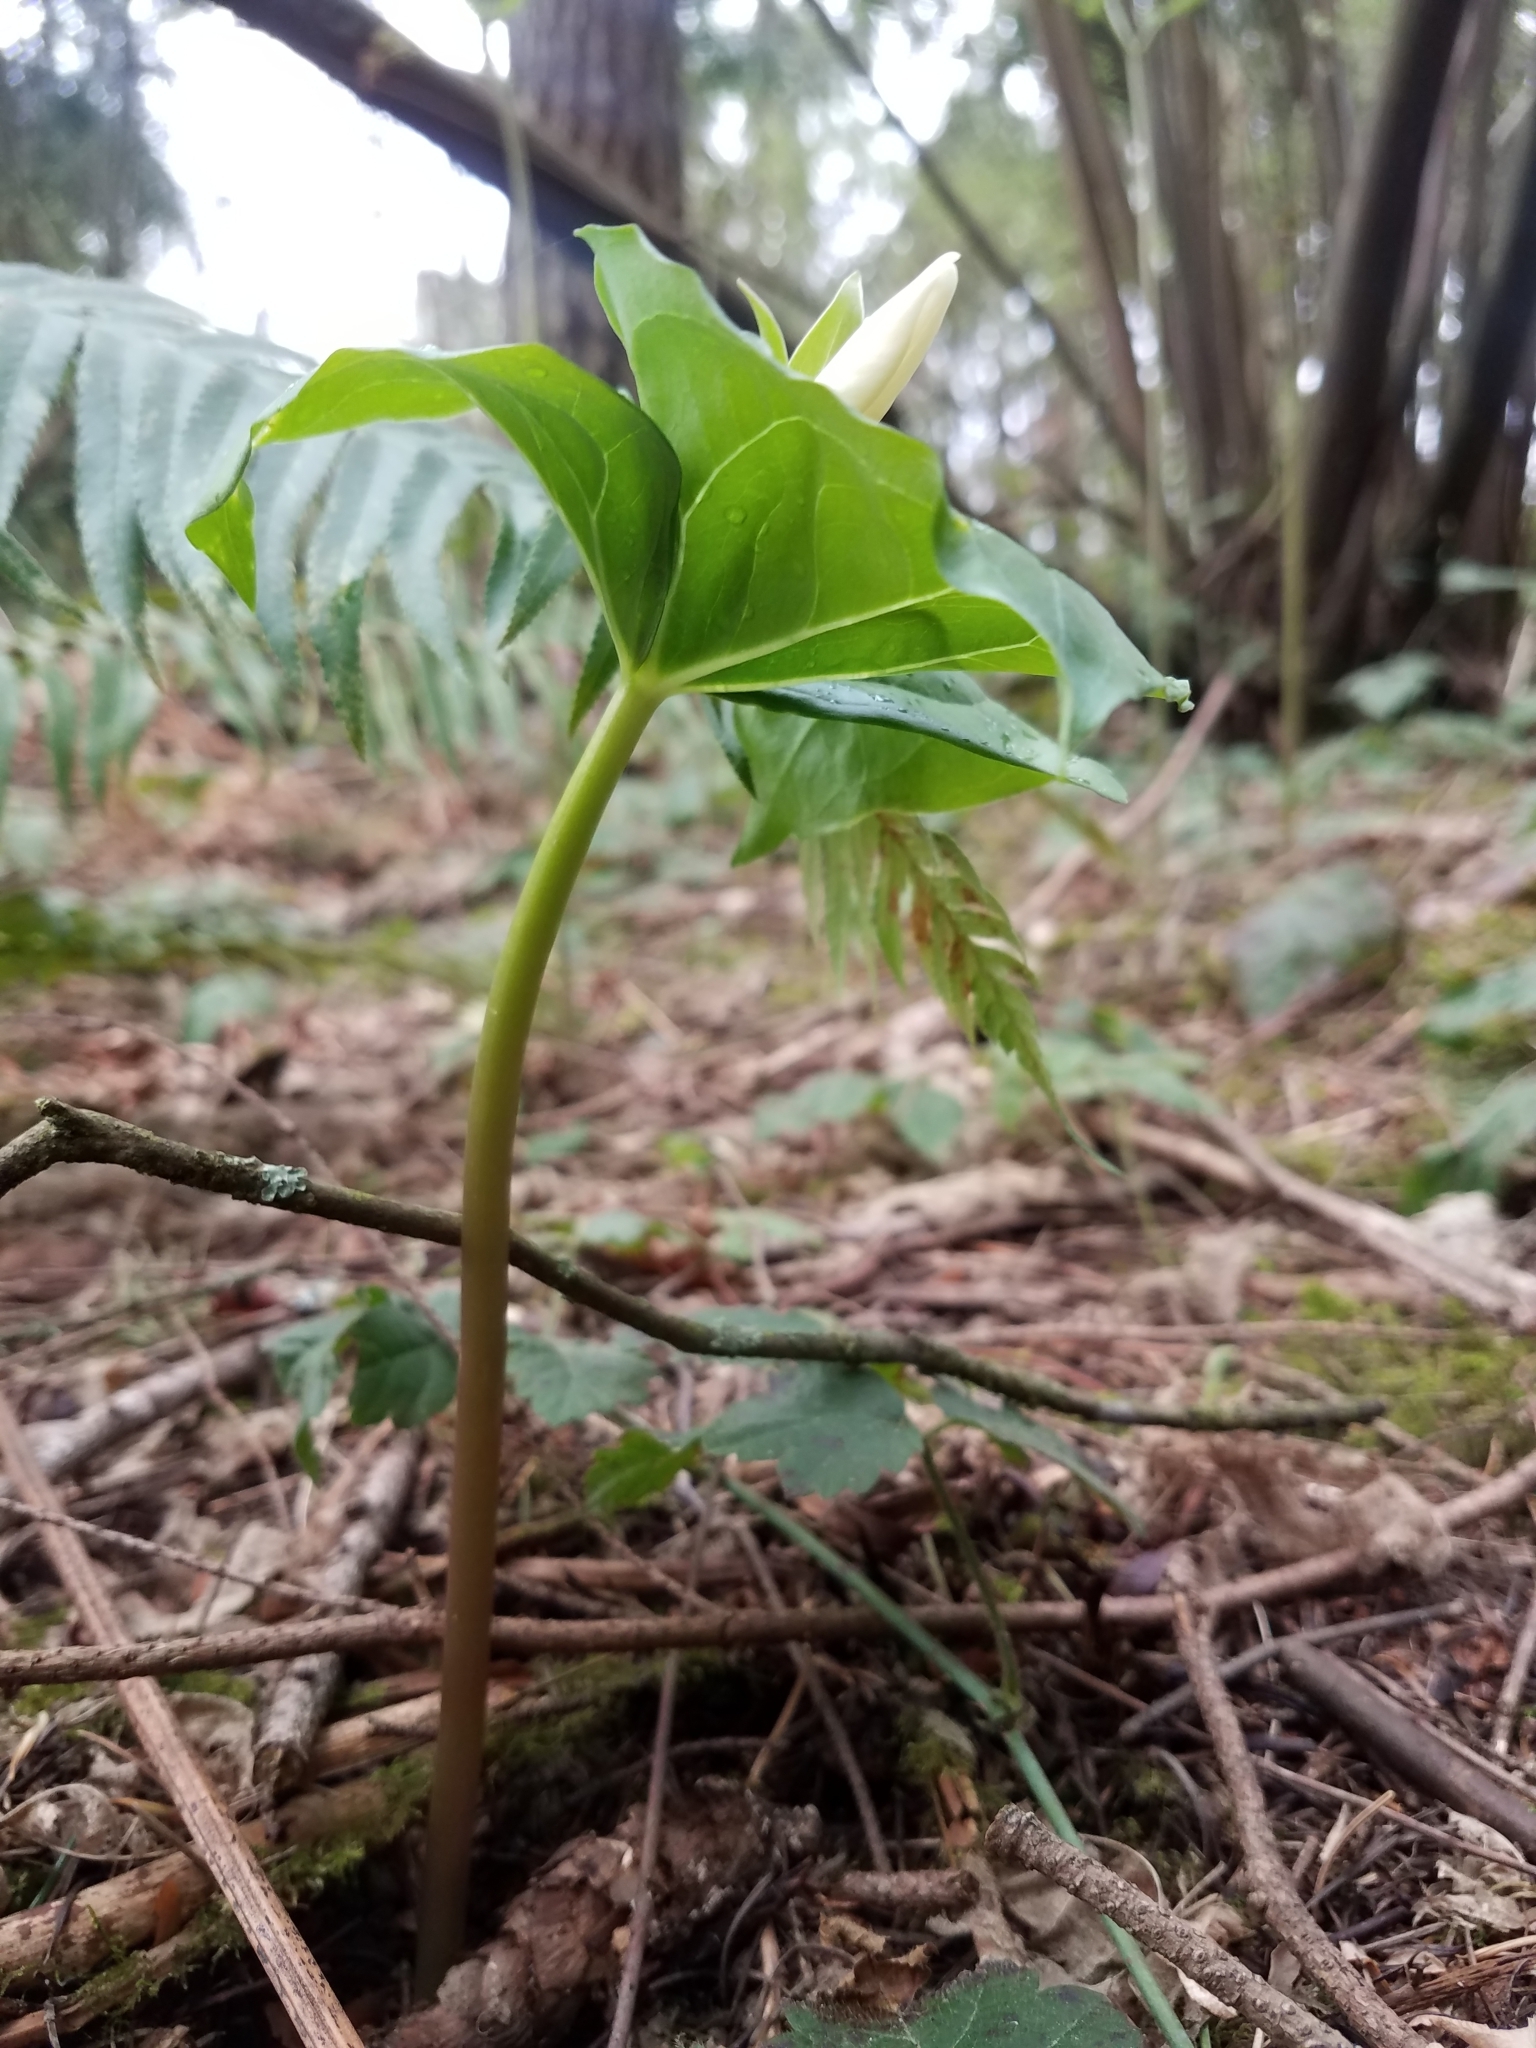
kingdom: Plantae
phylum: Tracheophyta
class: Liliopsida
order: Liliales
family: Melanthiaceae
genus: Trillium
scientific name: Trillium ovatum
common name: Pacific trillium
